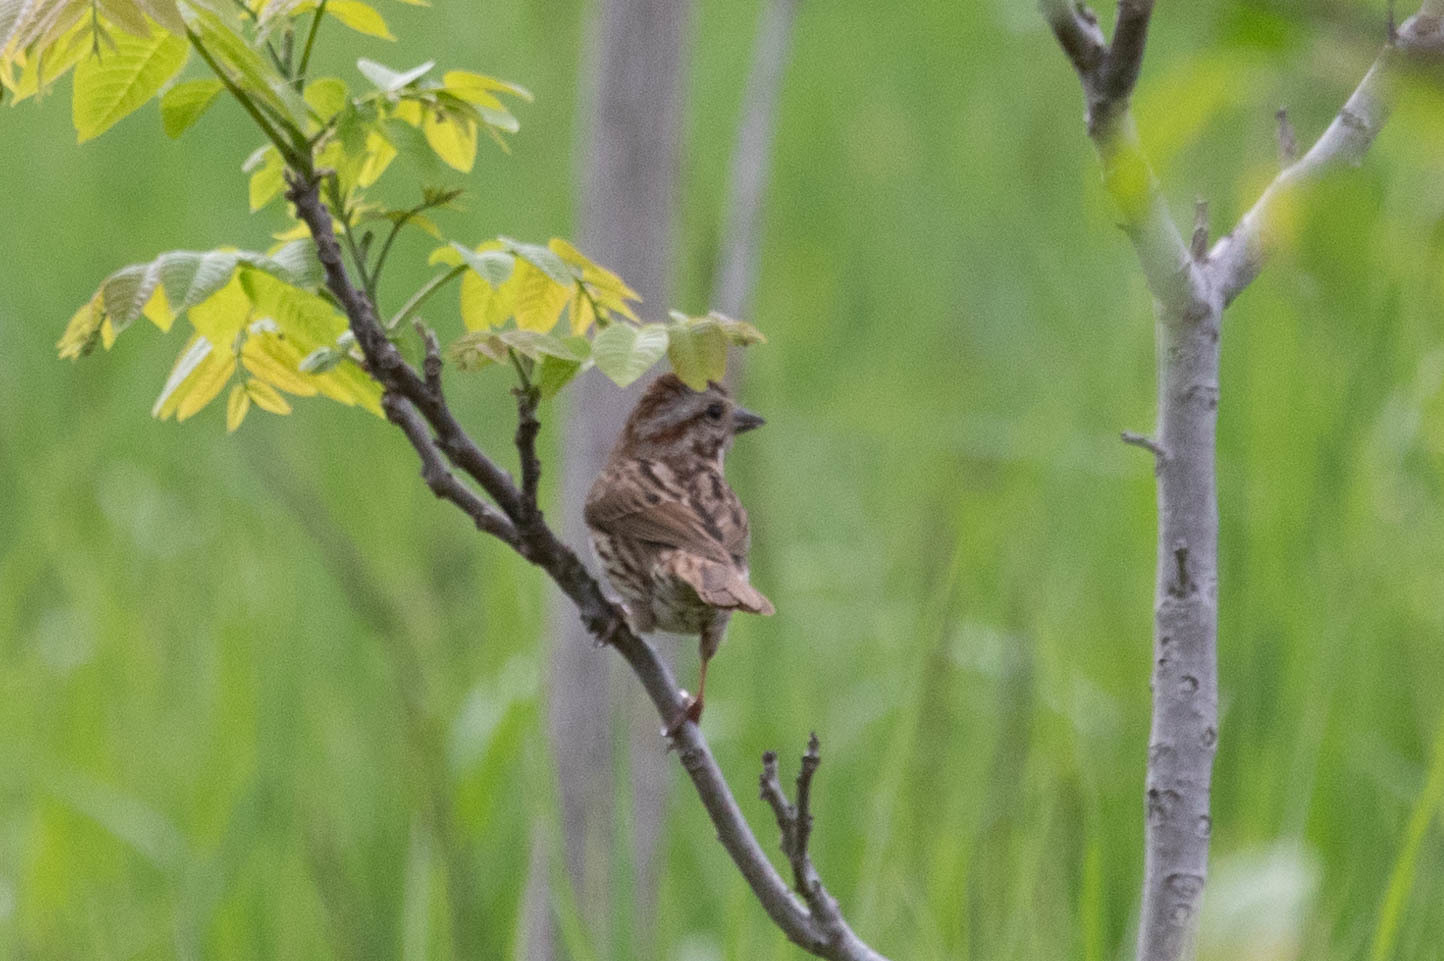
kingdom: Animalia
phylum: Chordata
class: Aves
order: Passeriformes
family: Passerellidae
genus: Melospiza
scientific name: Melospiza melodia
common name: Song sparrow
